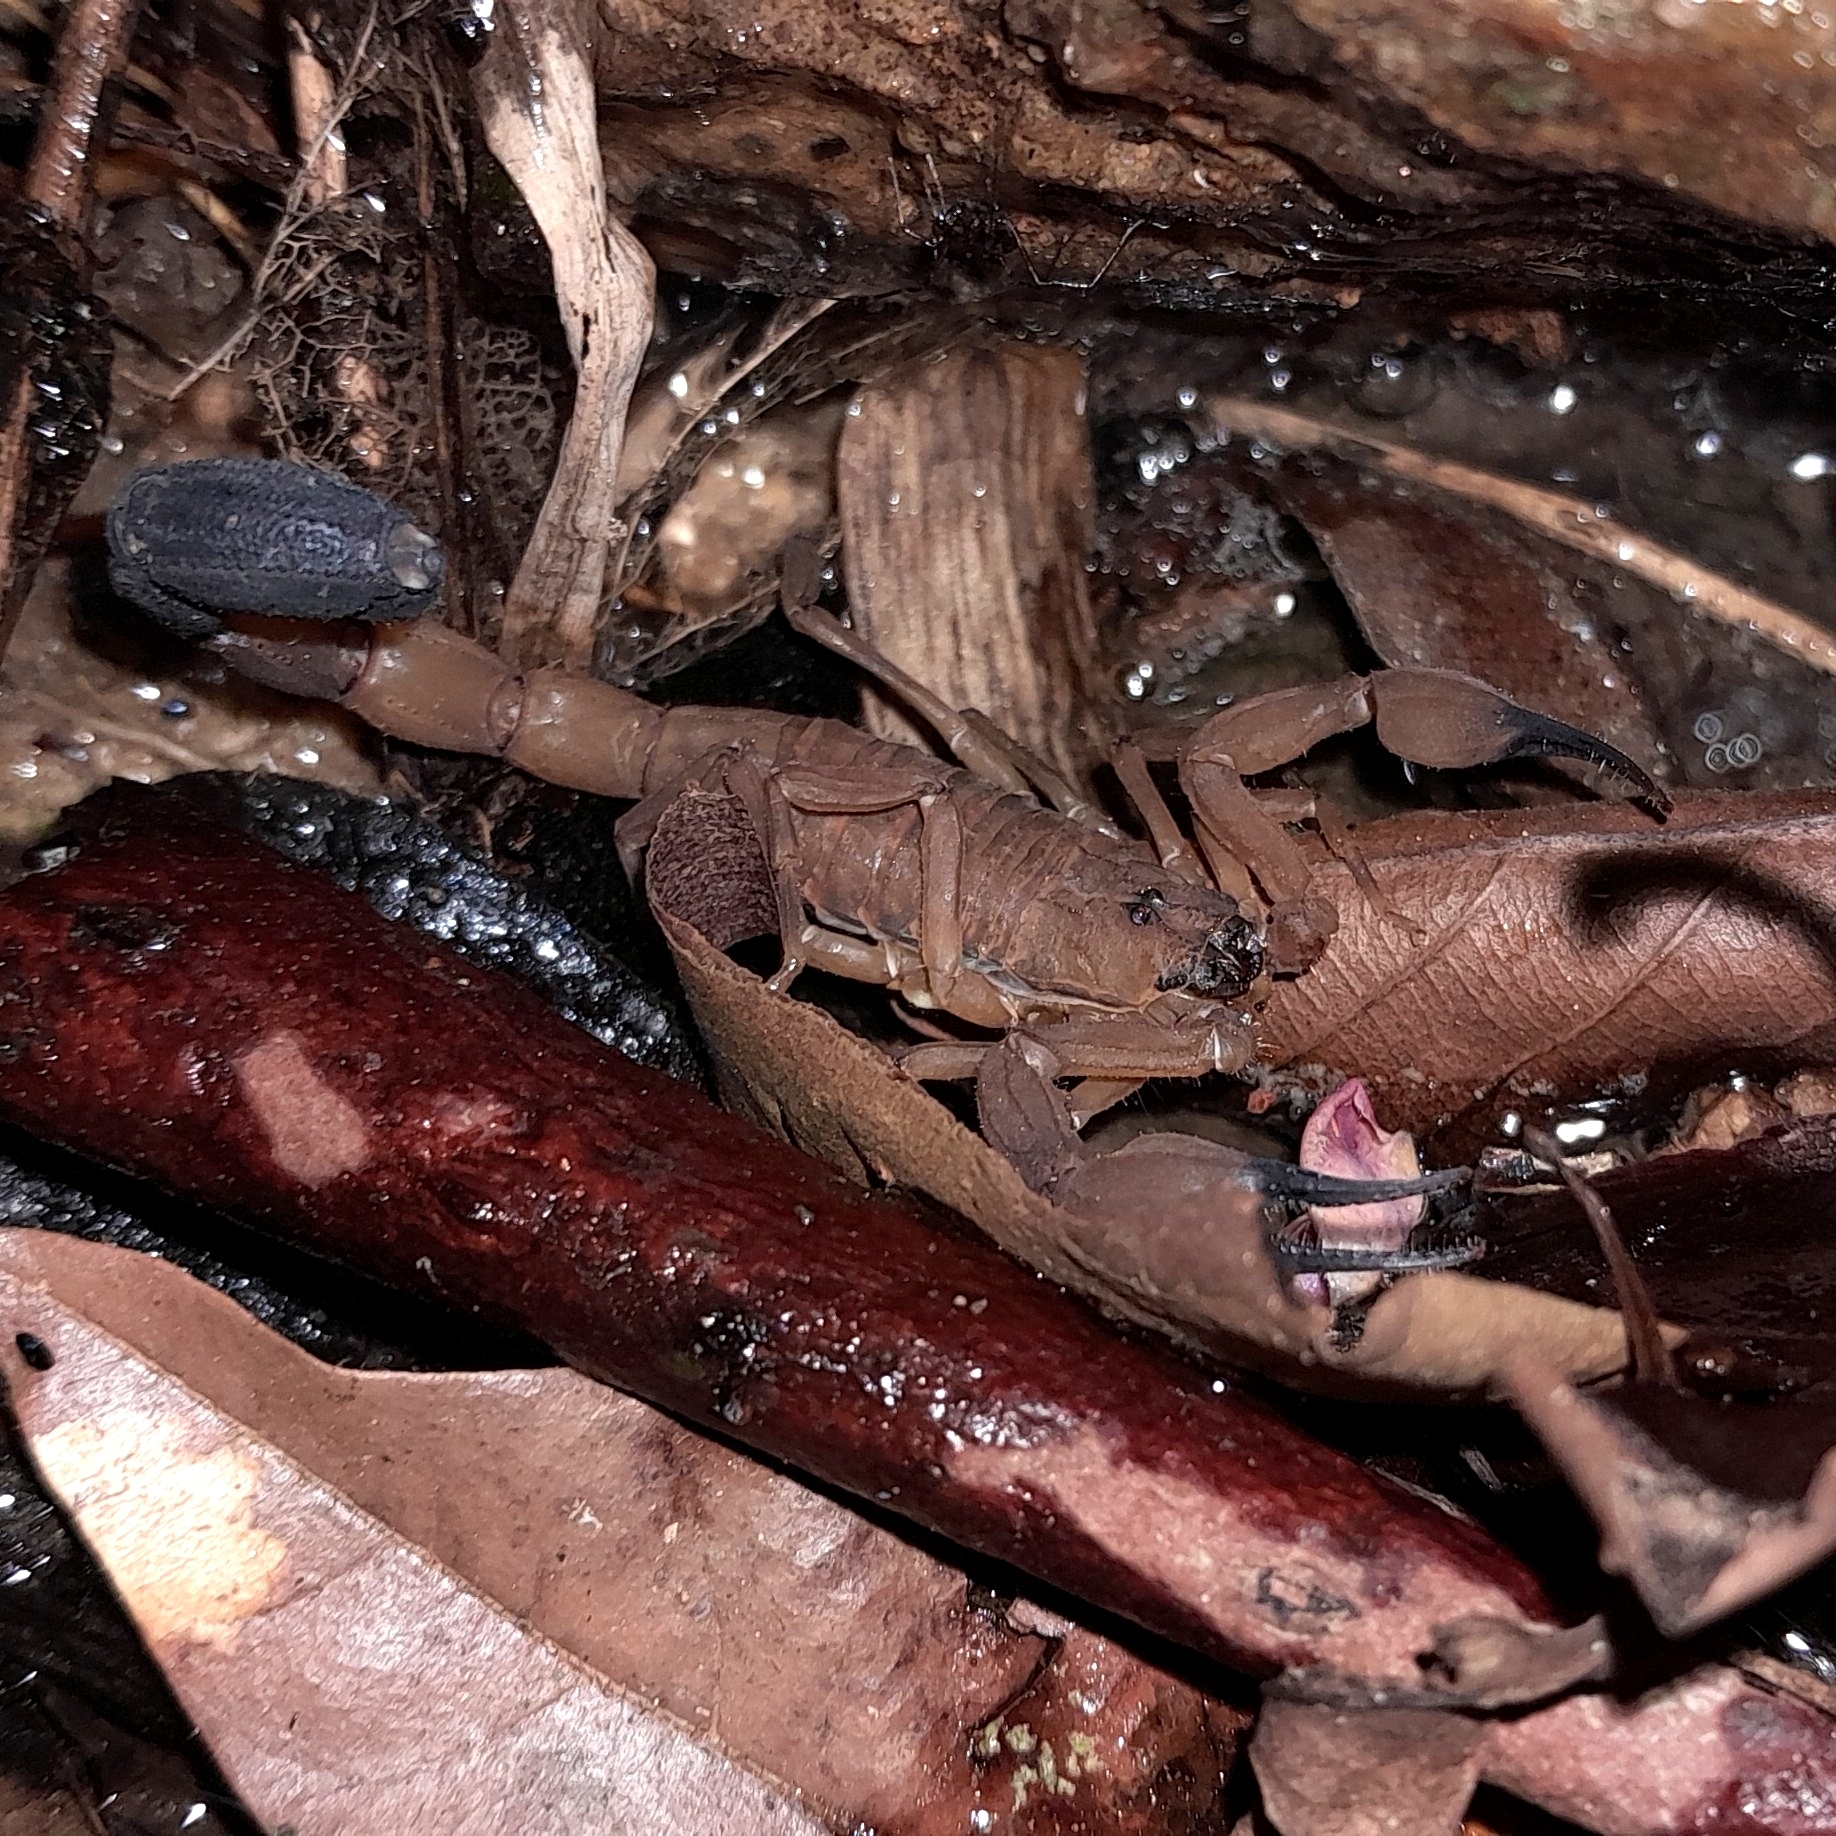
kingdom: Animalia
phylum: Arthropoda
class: Arachnida
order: Scorpiones
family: Buthidae
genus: Tityus
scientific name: Tityus engelkei
